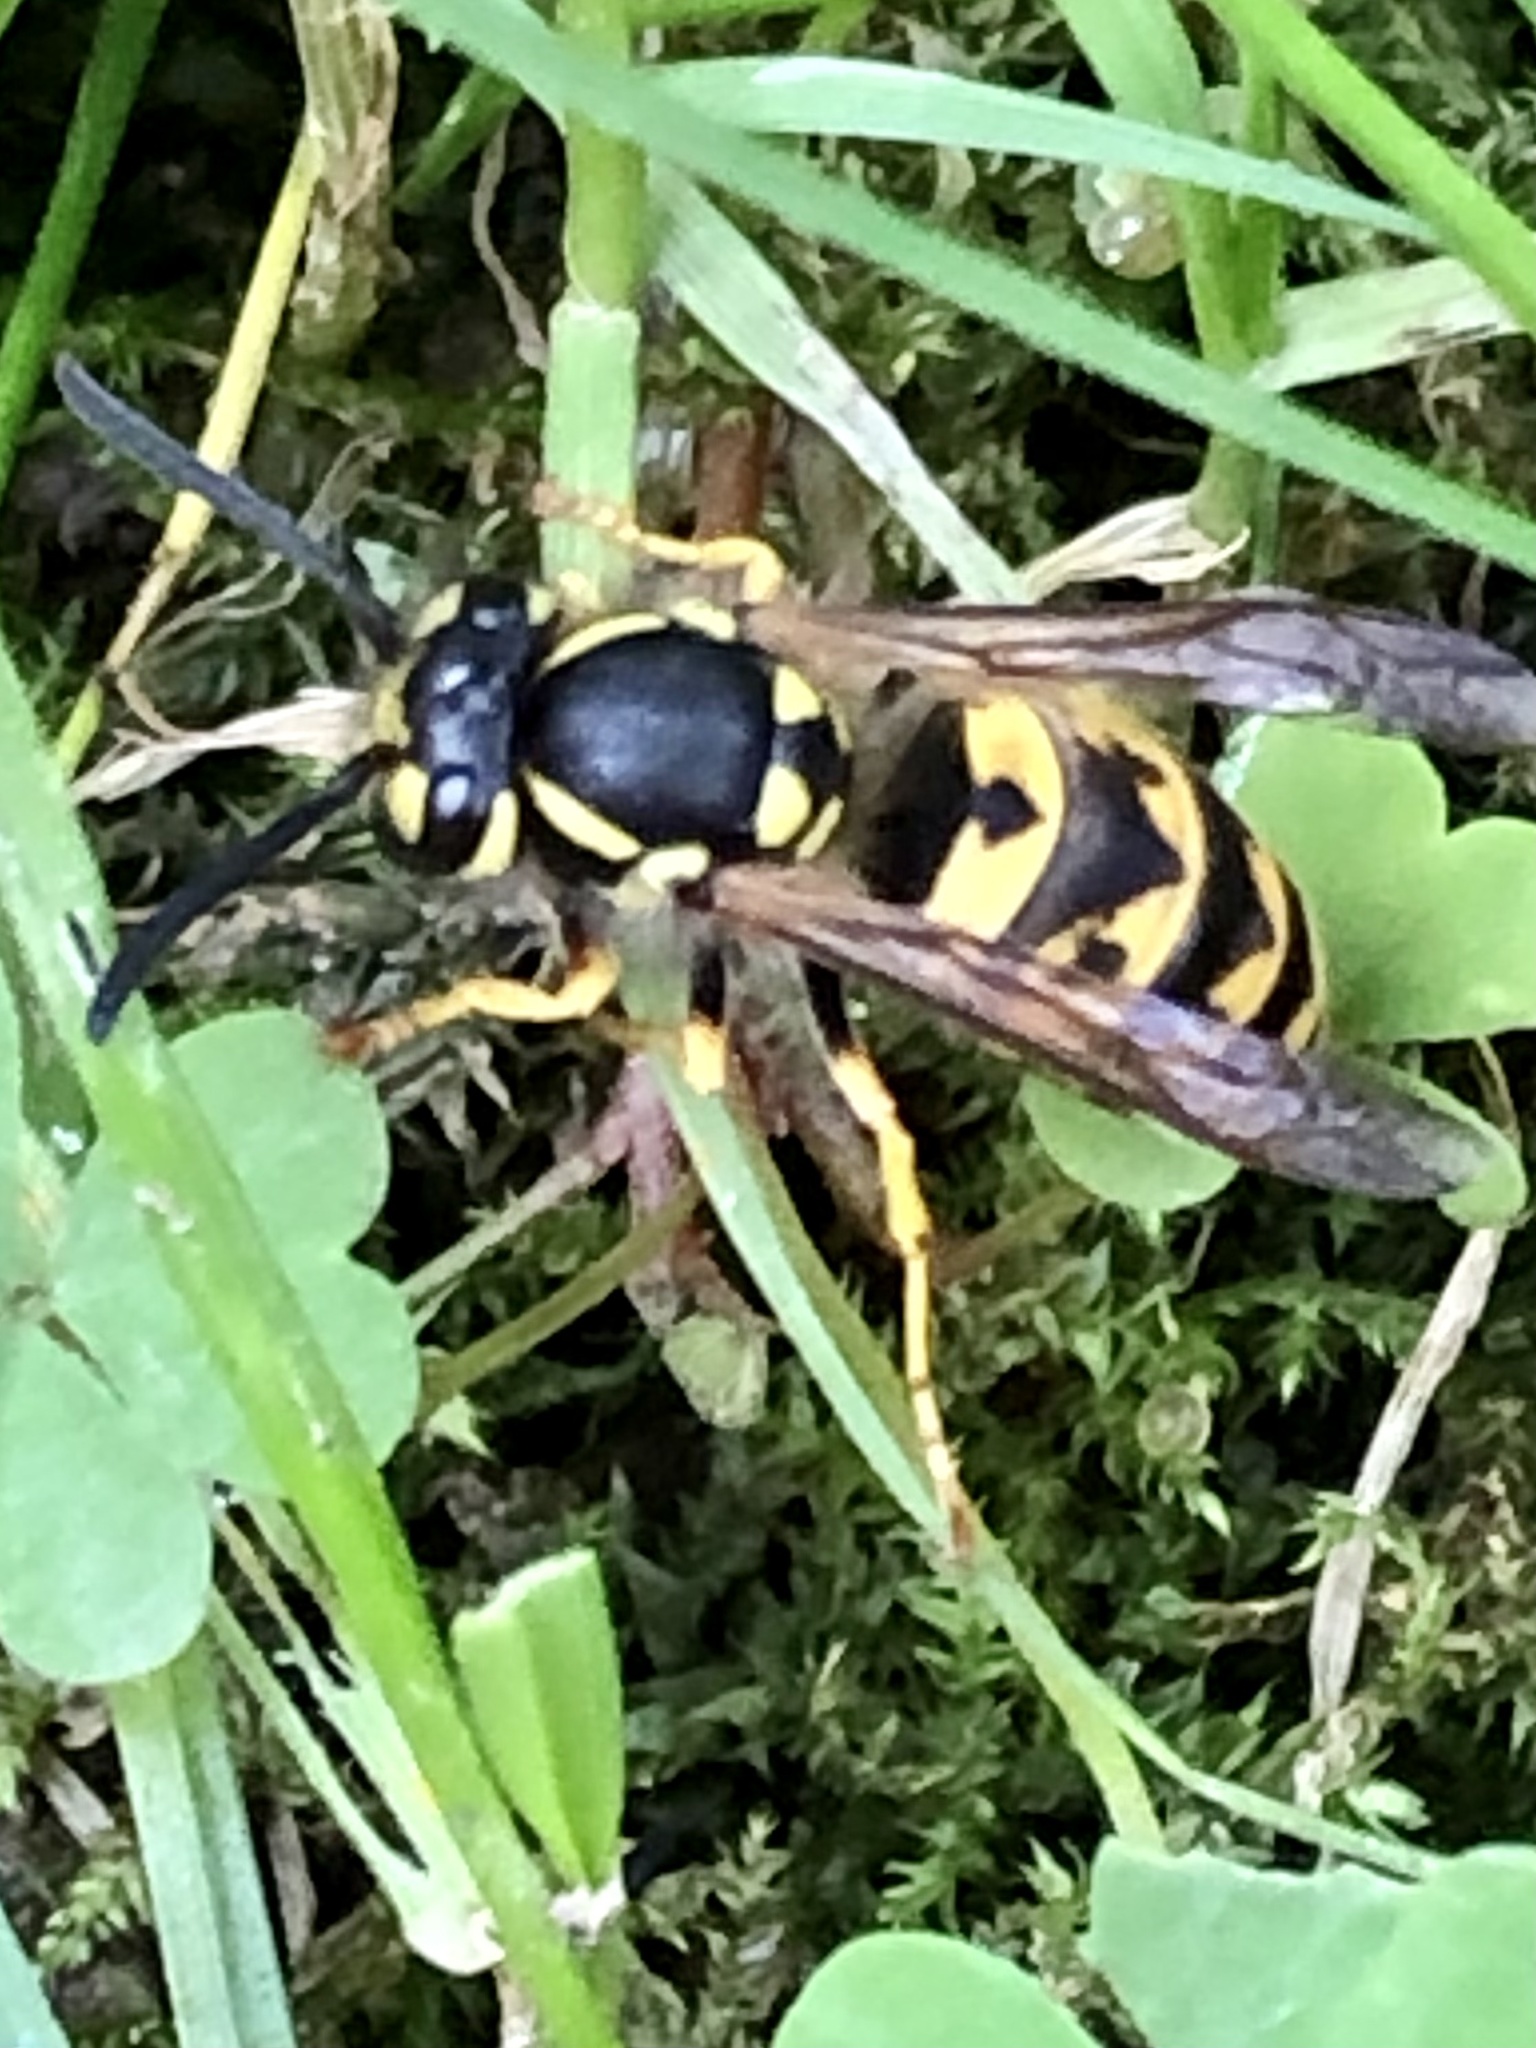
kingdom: Animalia
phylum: Arthropoda
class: Insecta
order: Hymenoptera
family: Vespidae
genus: Vespula
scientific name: Vespula germanica
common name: German wasp
